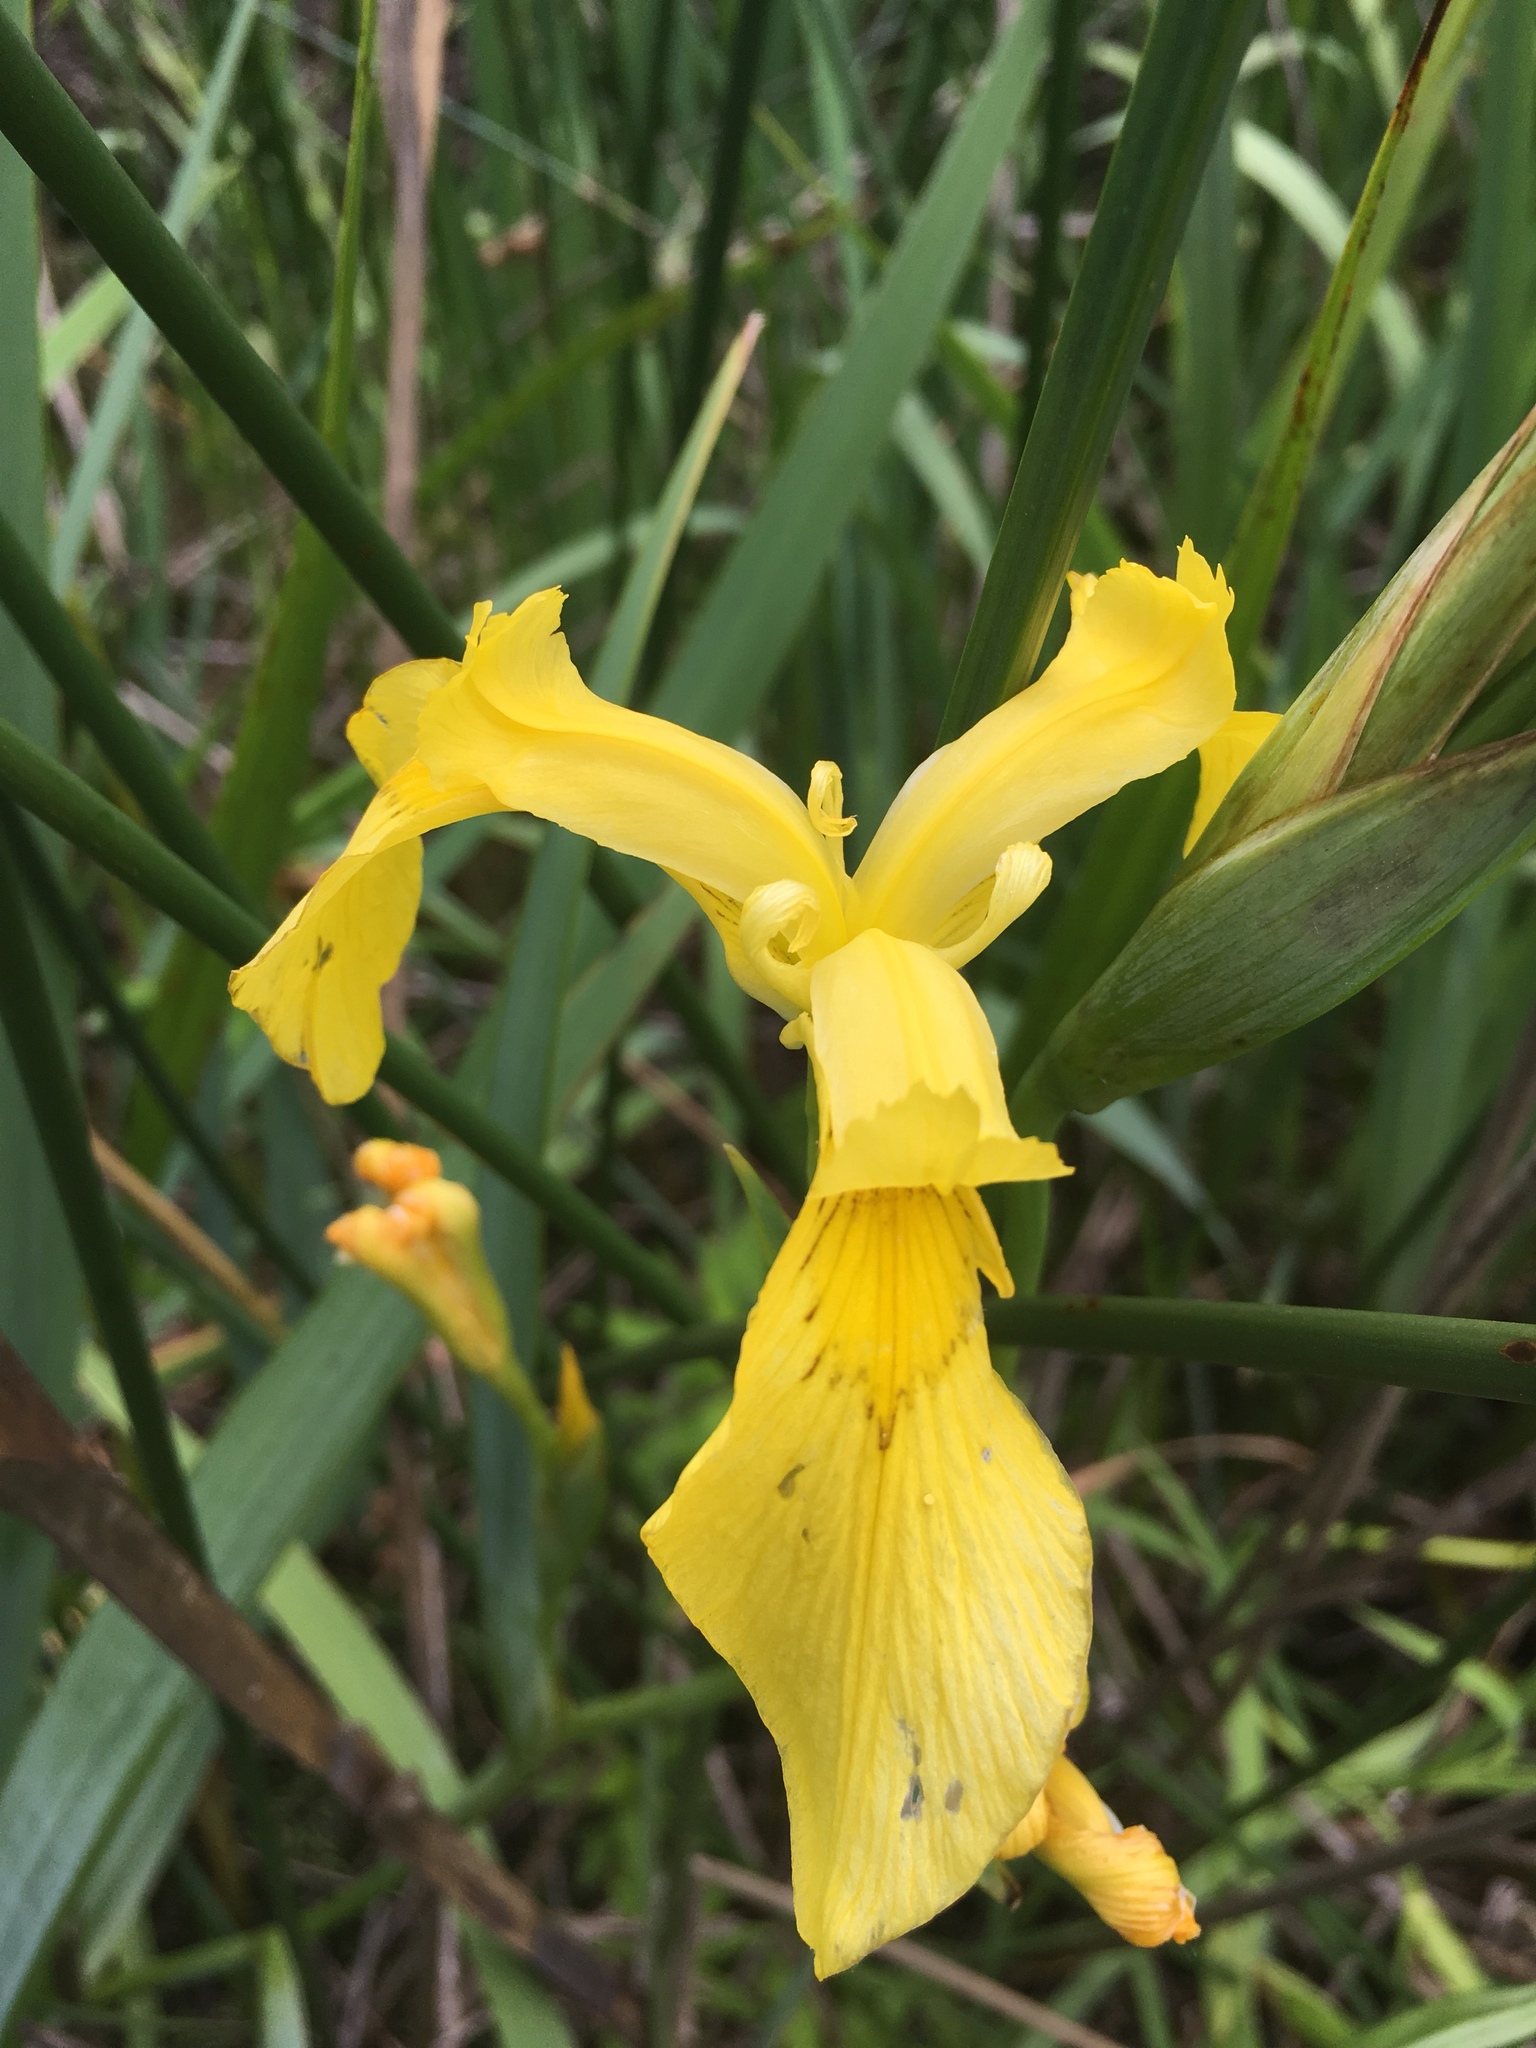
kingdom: Plantae
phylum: Tracheophyta
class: Liliopsida
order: Asparagales
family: Iridaceae
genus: Iris
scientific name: Iris pseudacorus
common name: Yellow flag
